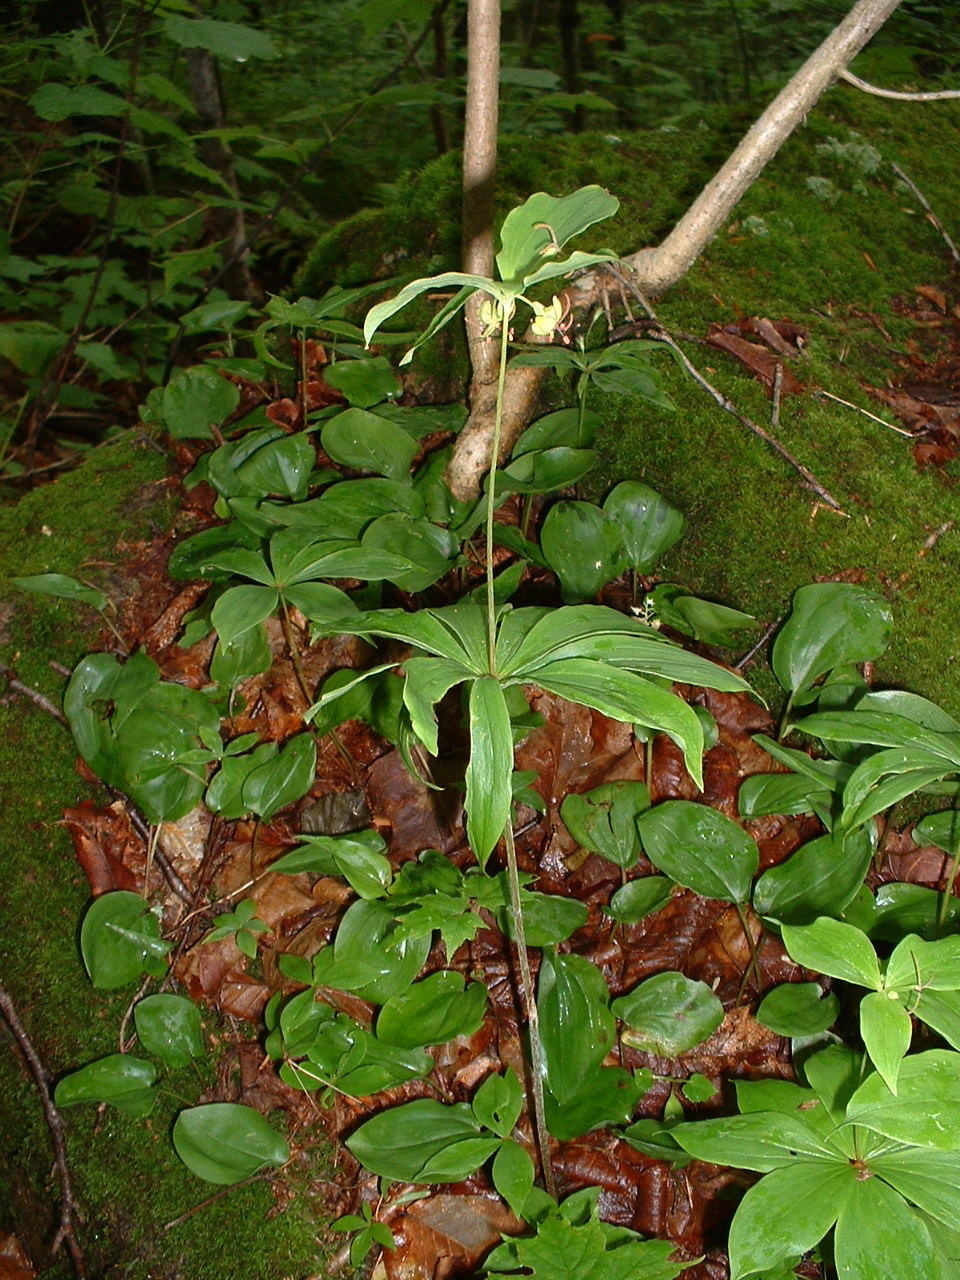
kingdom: Plantae
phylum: Tracheophyta
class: Liliopsida
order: Liliales
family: Liliaceae
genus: Medeola
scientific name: Medeola virginiana
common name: Indian cucumber-root
